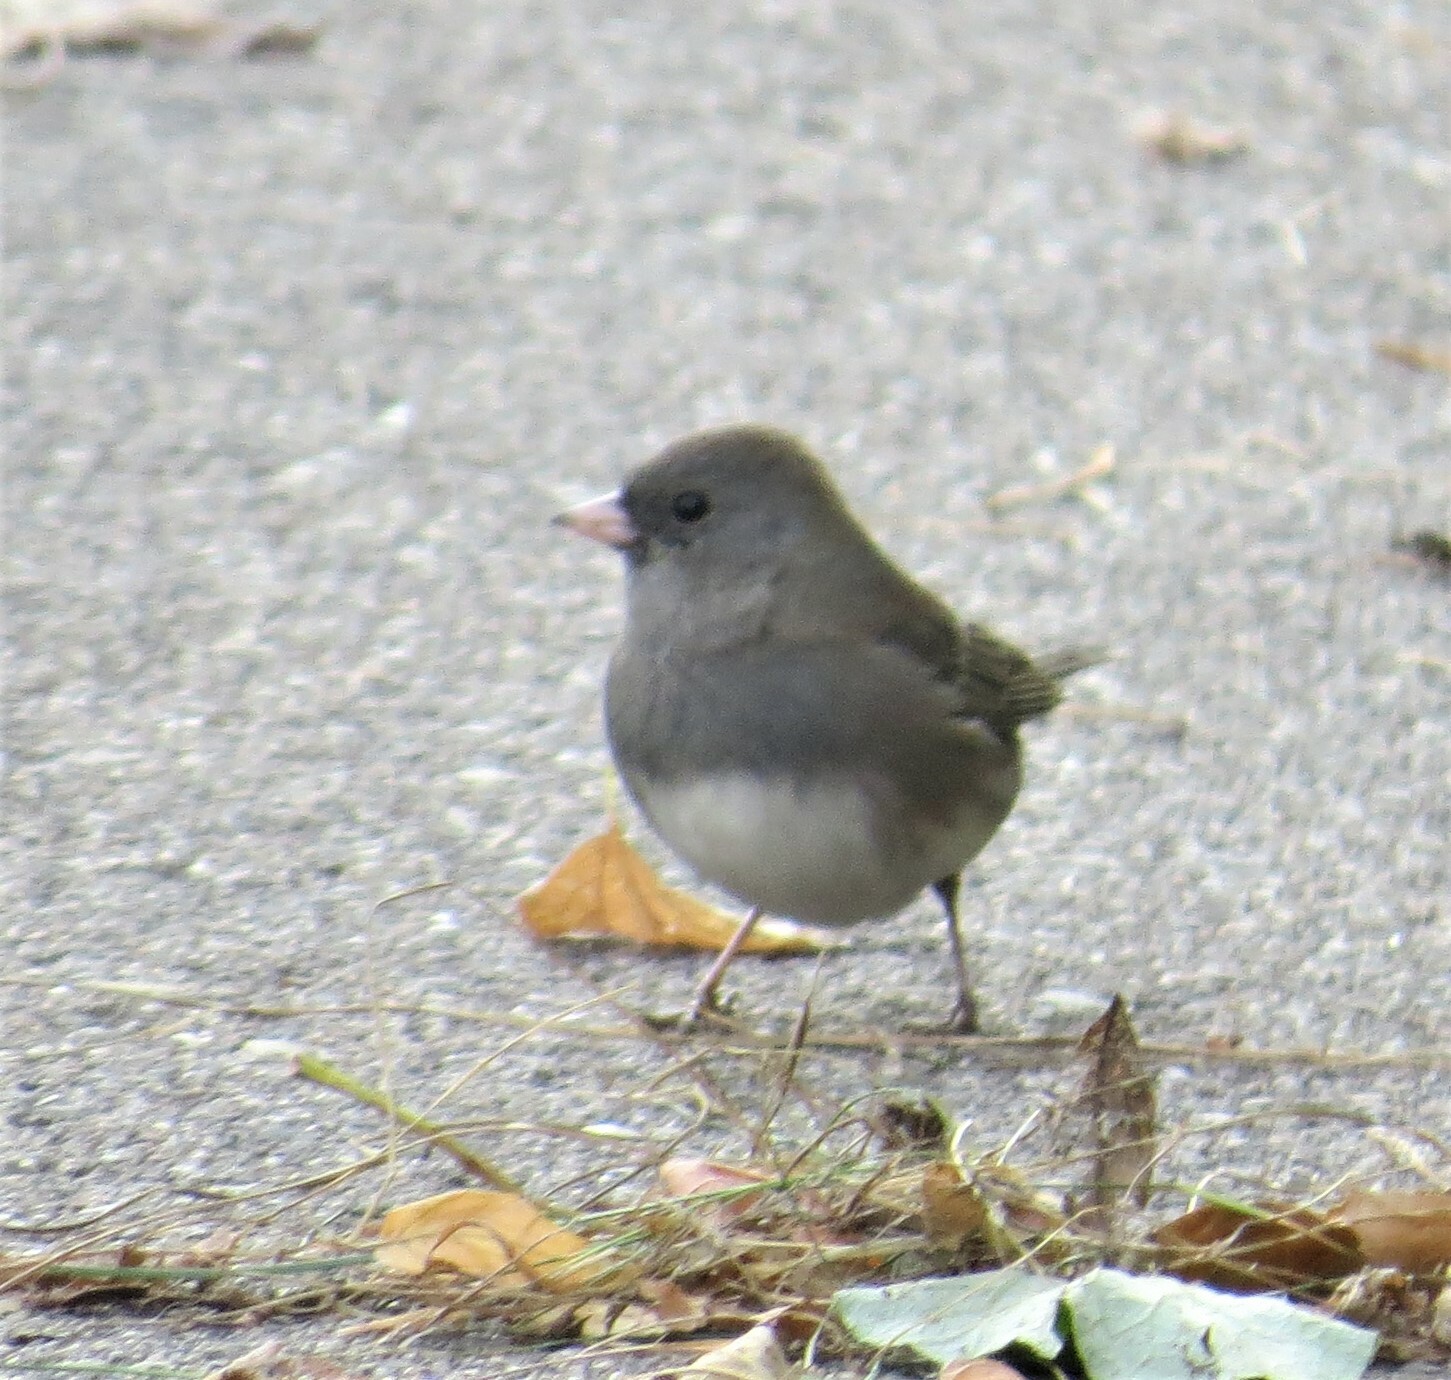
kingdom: Animalia
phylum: Chordata
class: Aves
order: Passeriformes
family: Passerellidae
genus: Junco
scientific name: Junco hyemalis
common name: Dark-eyed junco
